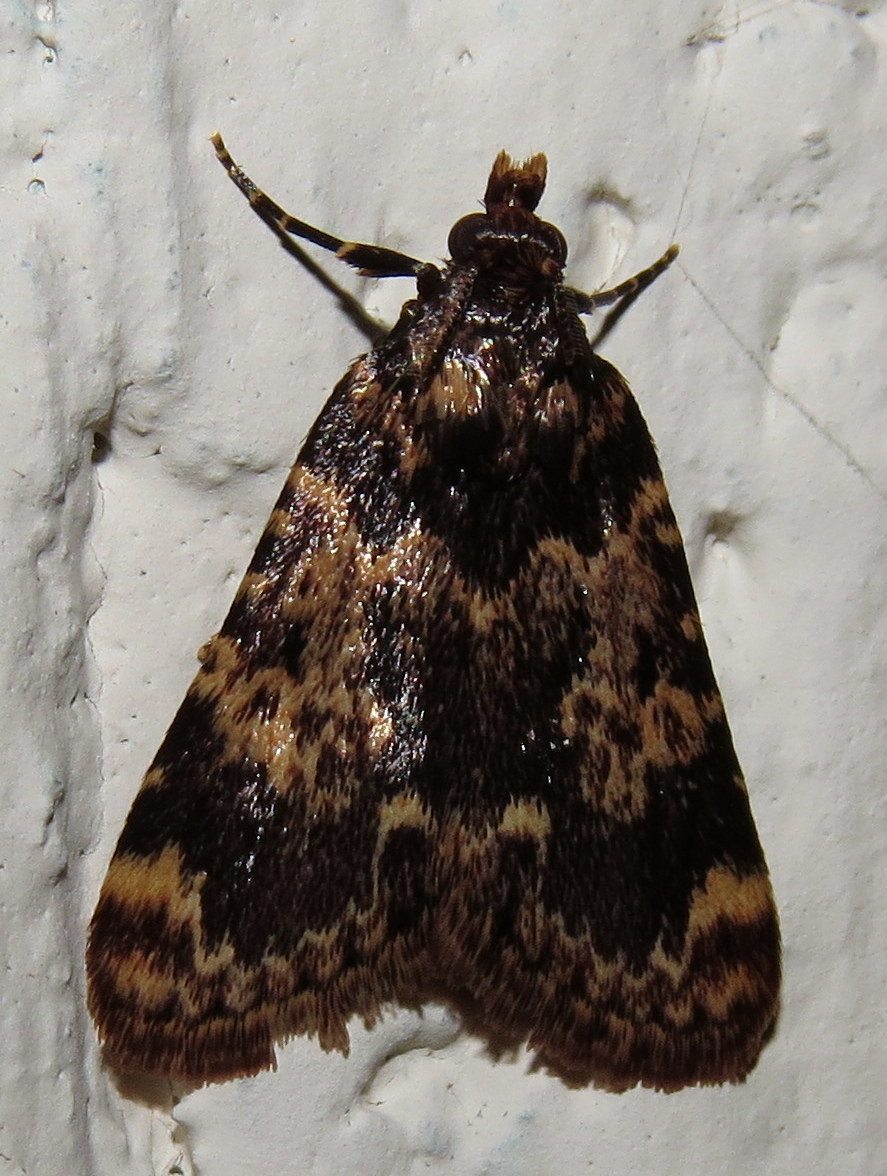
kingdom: Animalia
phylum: Arthropoda
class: Insecta
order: Lepidoptera
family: Pyralidae
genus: Aglossa
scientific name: Aglossa caprealis
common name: Small tabby
